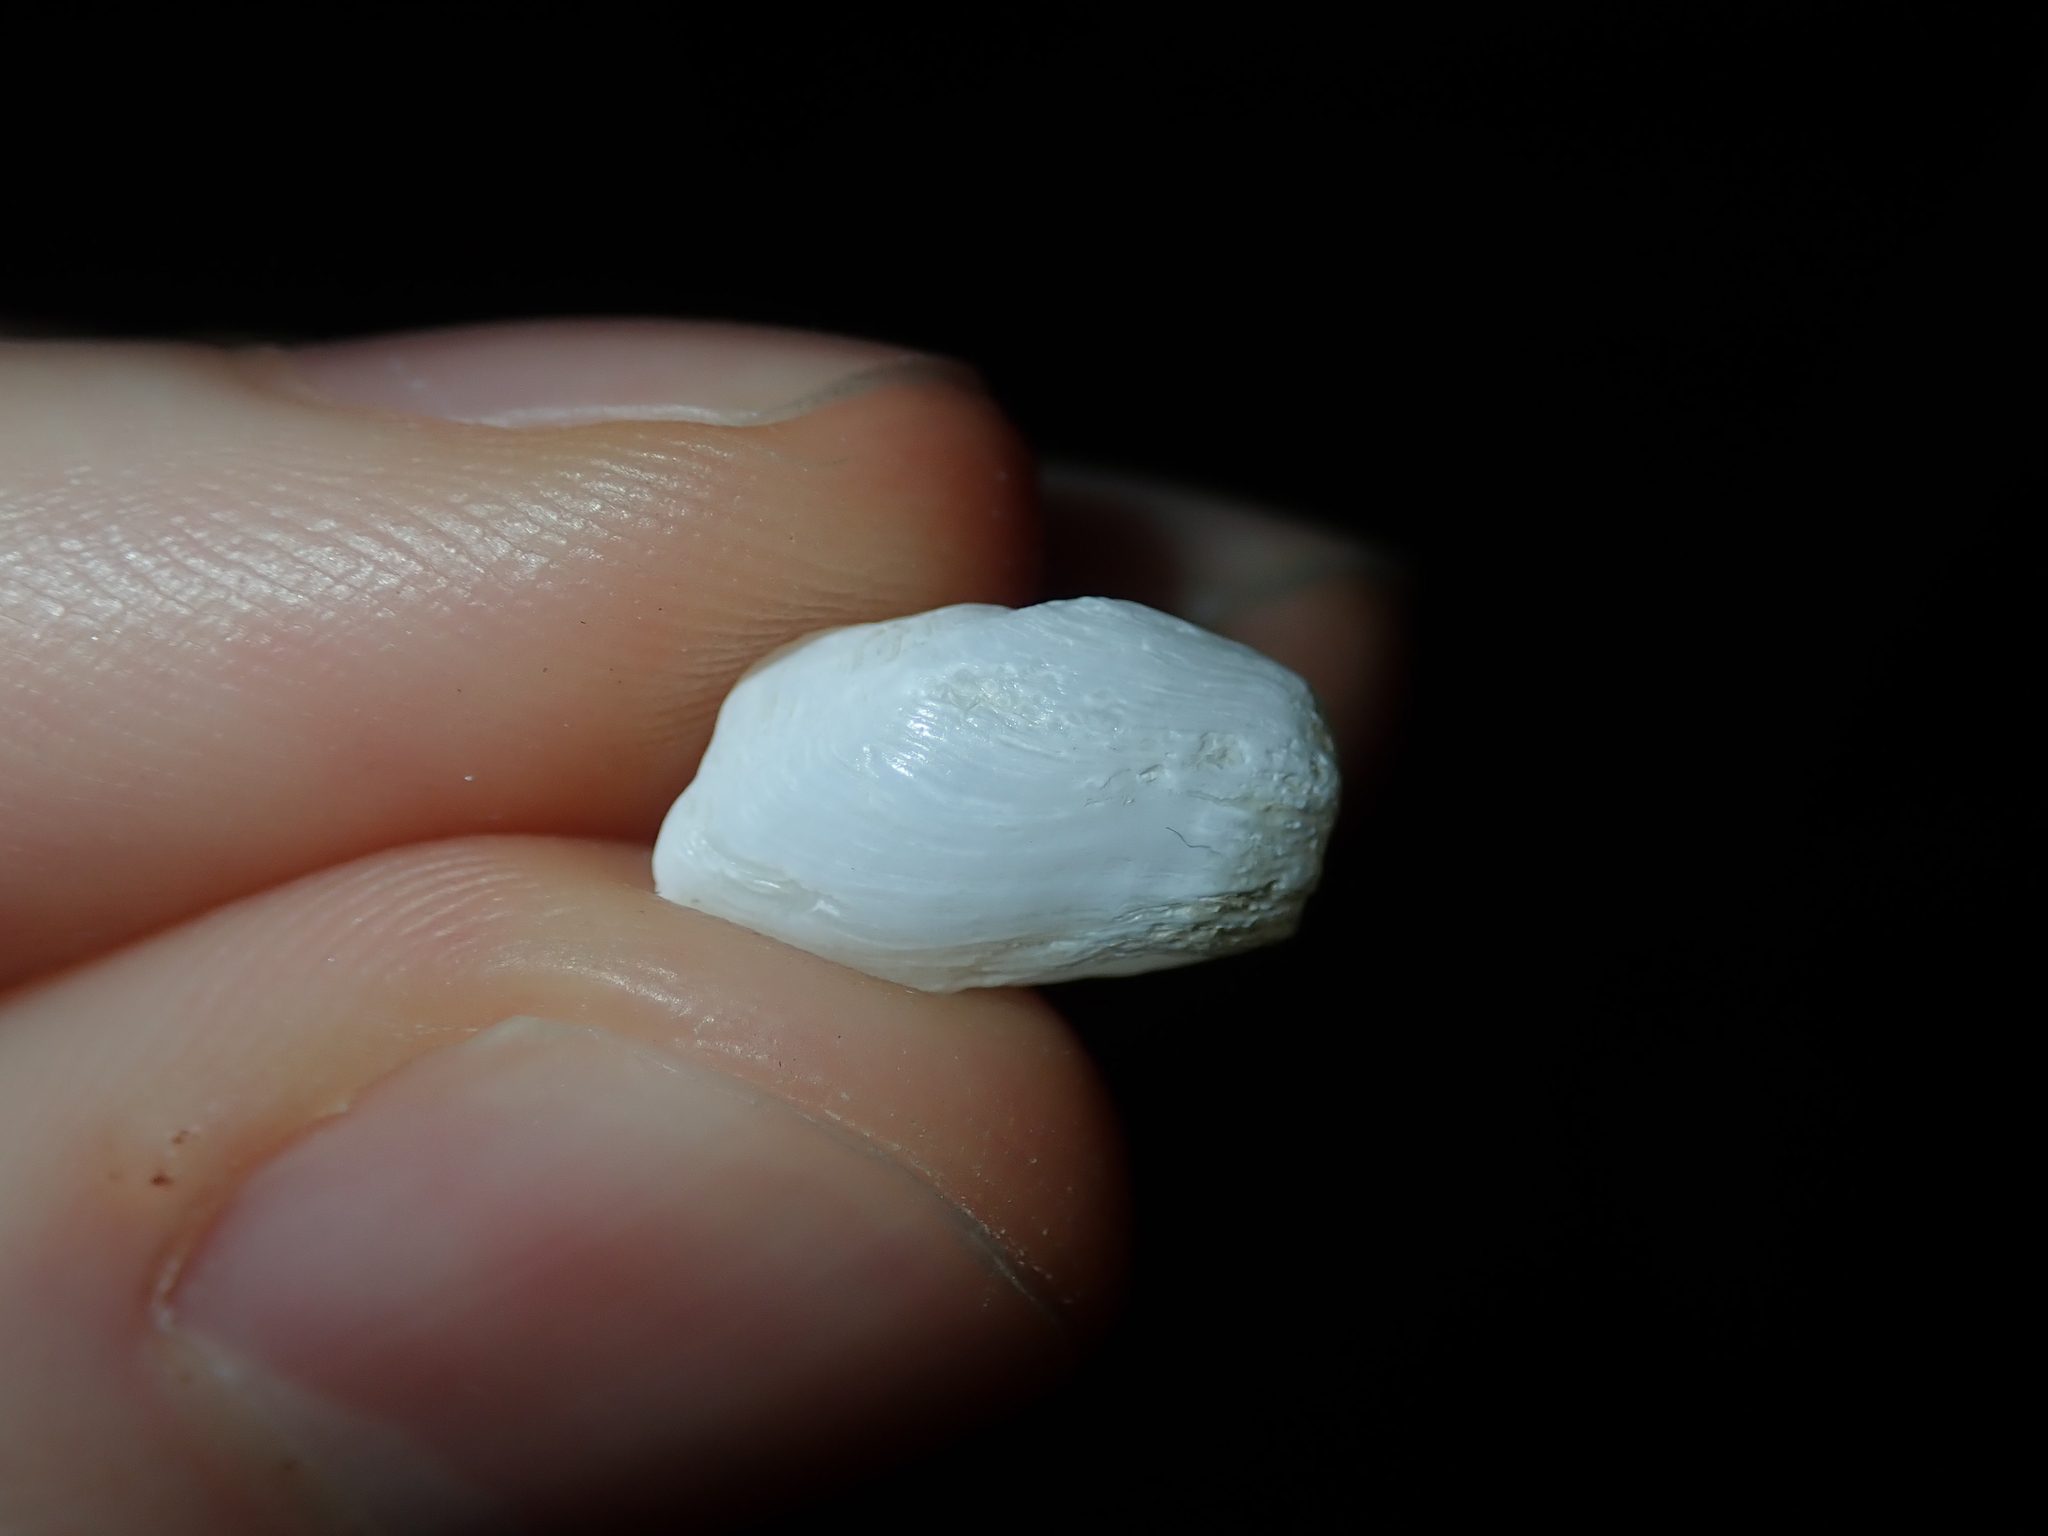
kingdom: Animalia
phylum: Mollusca
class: Bivalvia
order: Adapedonta
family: Hiatellidae
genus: Hiatella
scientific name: Hiatella australis
